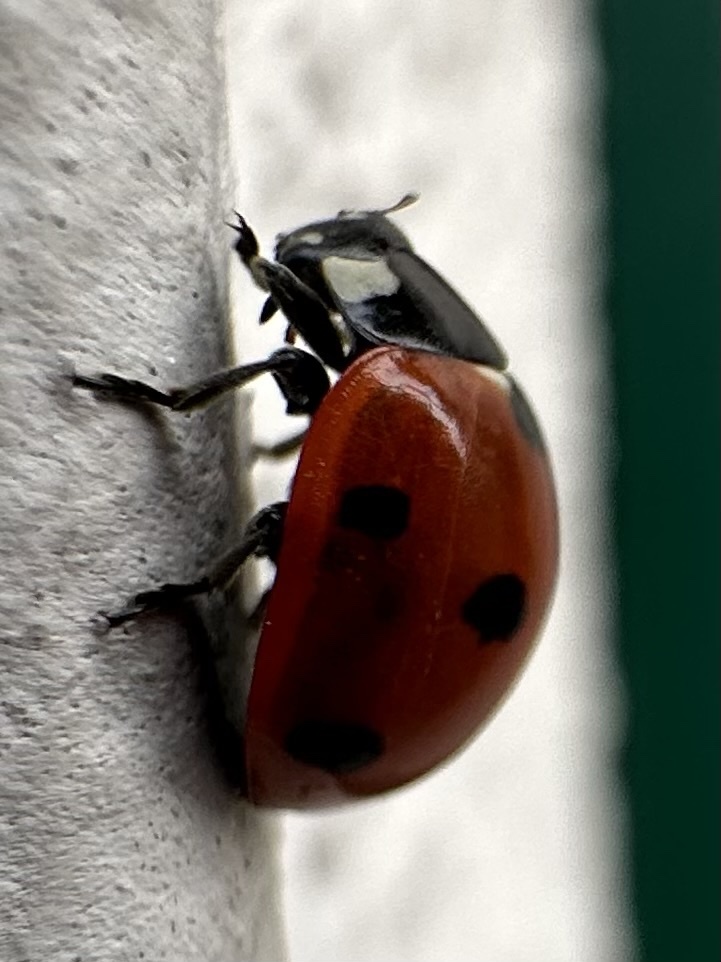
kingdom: Animalia
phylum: Arthropoda
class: Insecta
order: Coleoptera
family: Coccinellidae
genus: Coccinella
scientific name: Coccinella septempunctata
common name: Sevenspotted lady beetle
